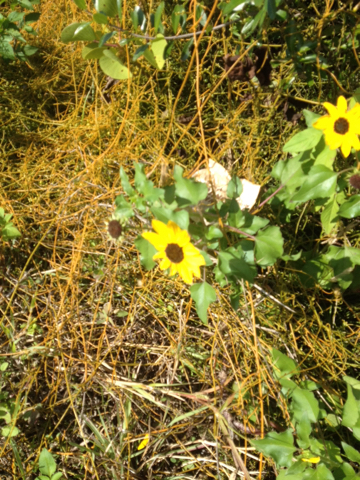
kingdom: Plantae
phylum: Tracheophyta
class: Magnoliopsida
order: Asterales
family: Asteraceae
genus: Helianthus
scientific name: Helianthus debilis
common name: Weak sunflower
